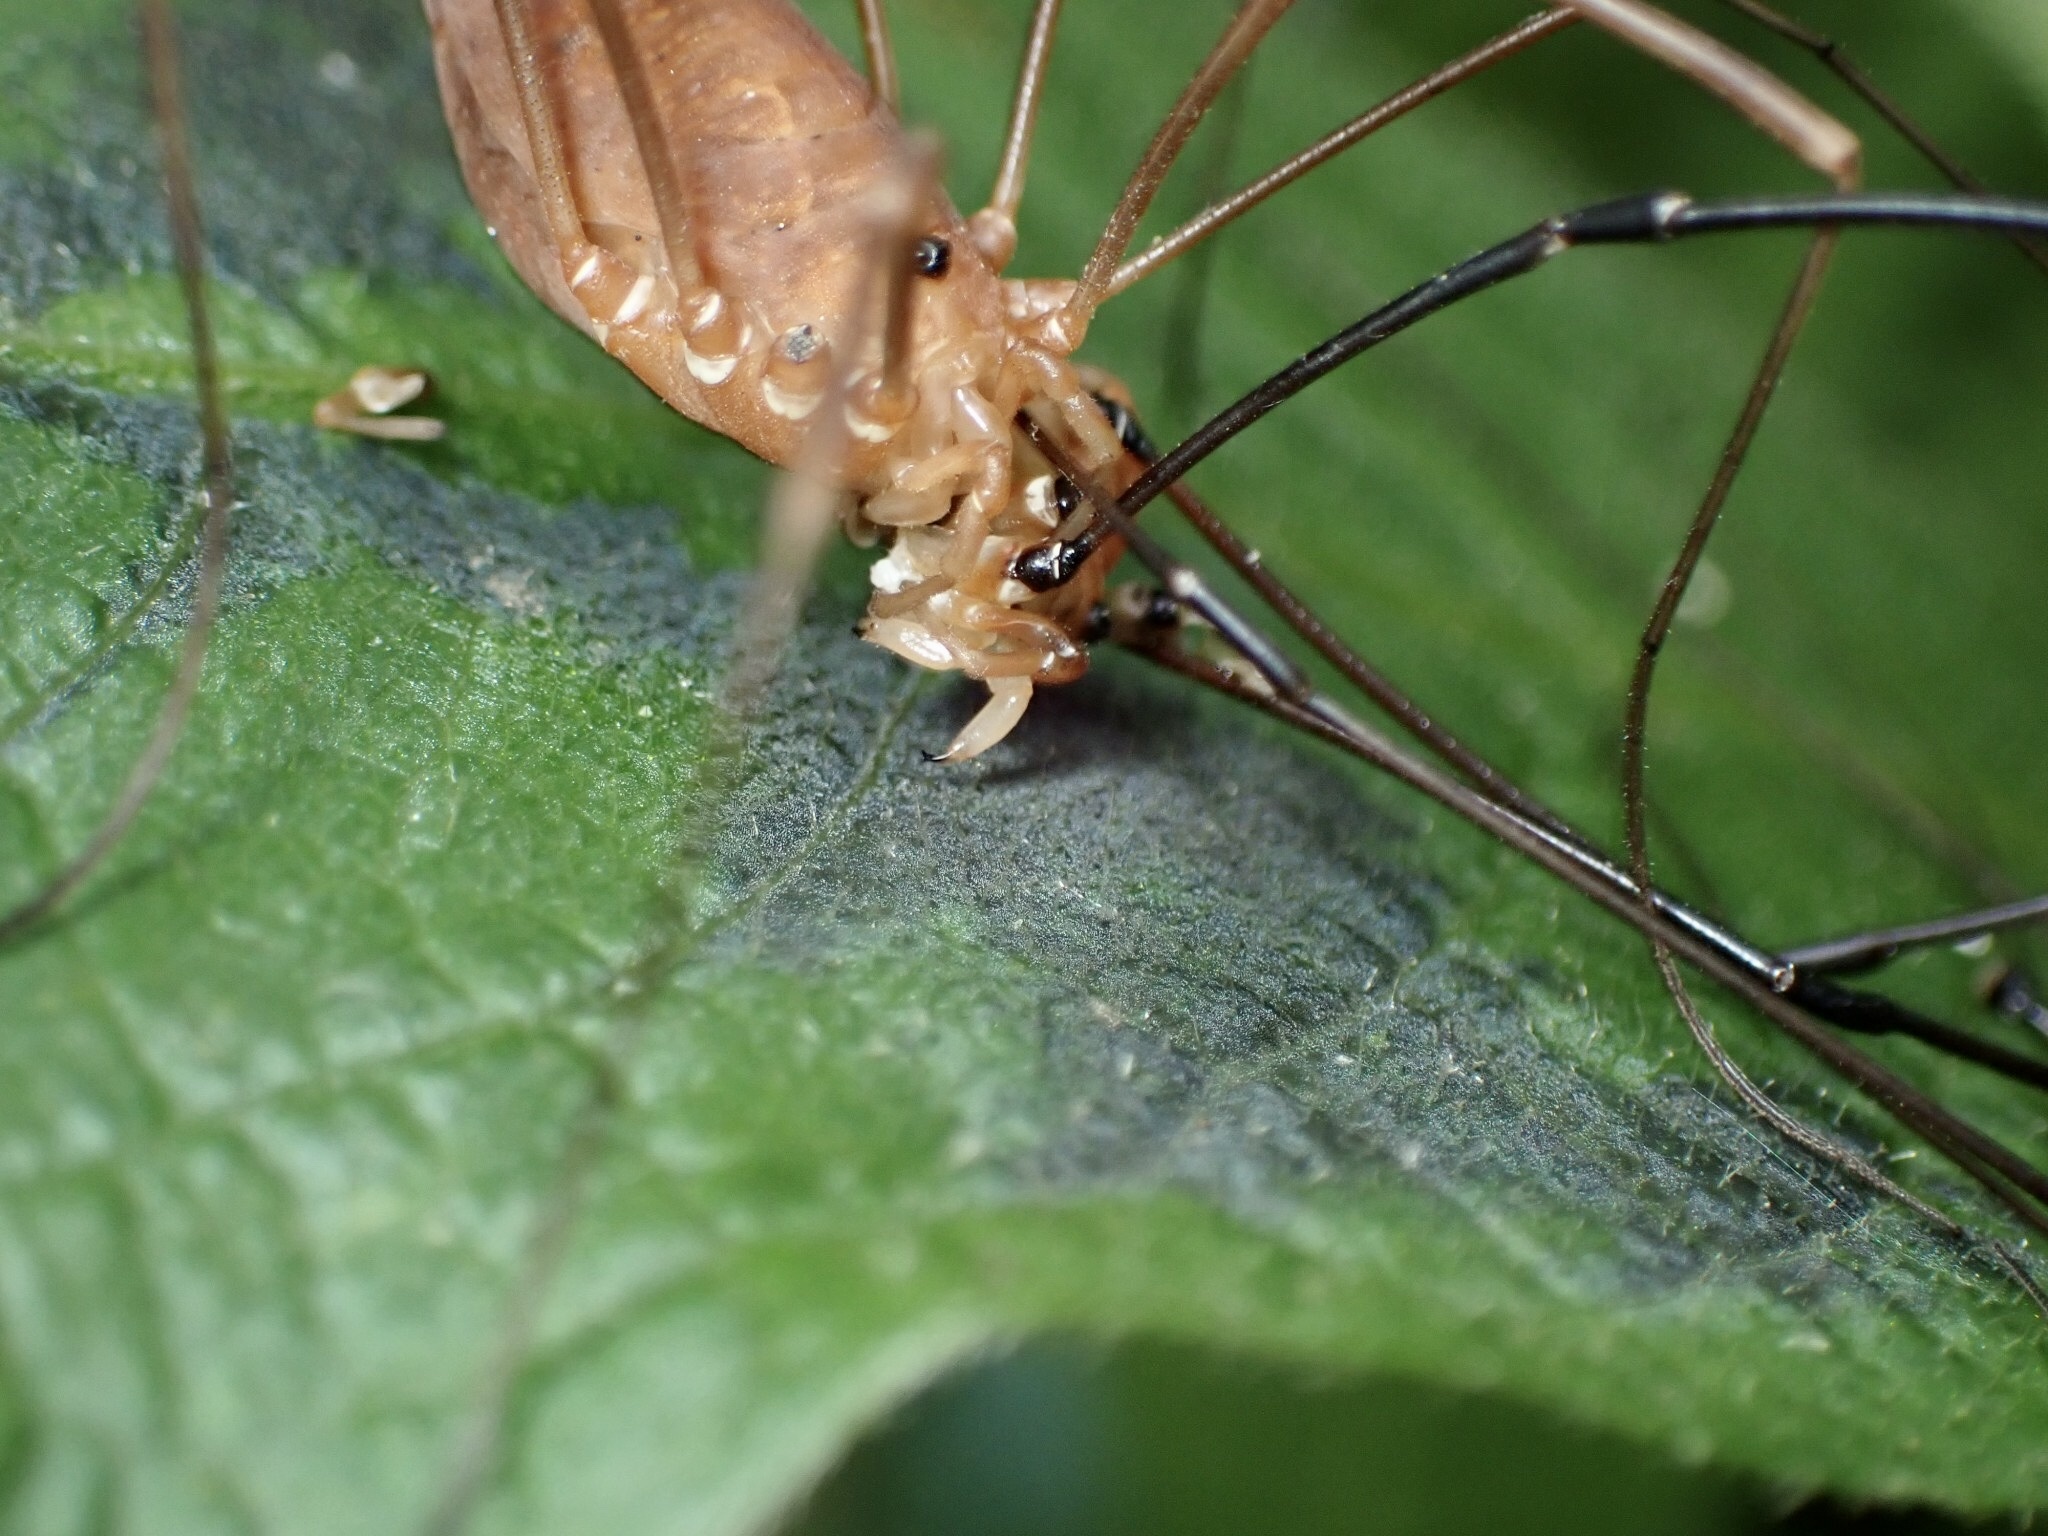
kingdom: Animalia
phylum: Arthropoda
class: Arachnida
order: Opiliones
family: Sclerosomatidae
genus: Leiobunum
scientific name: Leiobunum ventricosum
